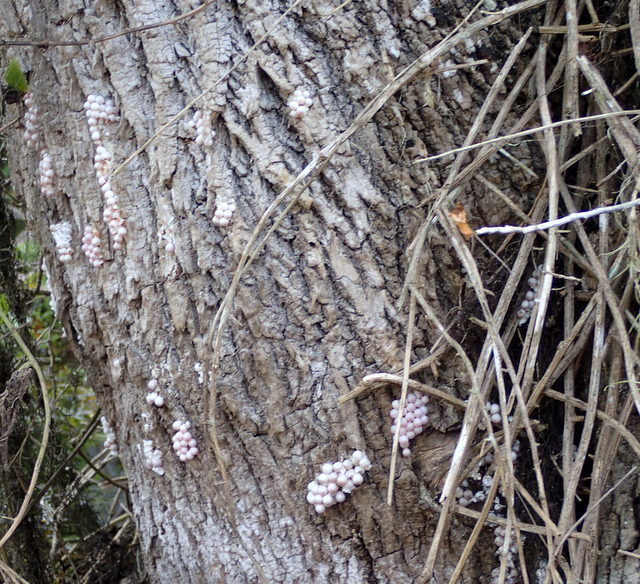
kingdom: Animalia
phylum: Mollusca
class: Gastropoda
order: Architaenioglossa
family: Ampullariidae
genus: Pomacea
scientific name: Pomacea paludosa
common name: Florida applesnail
